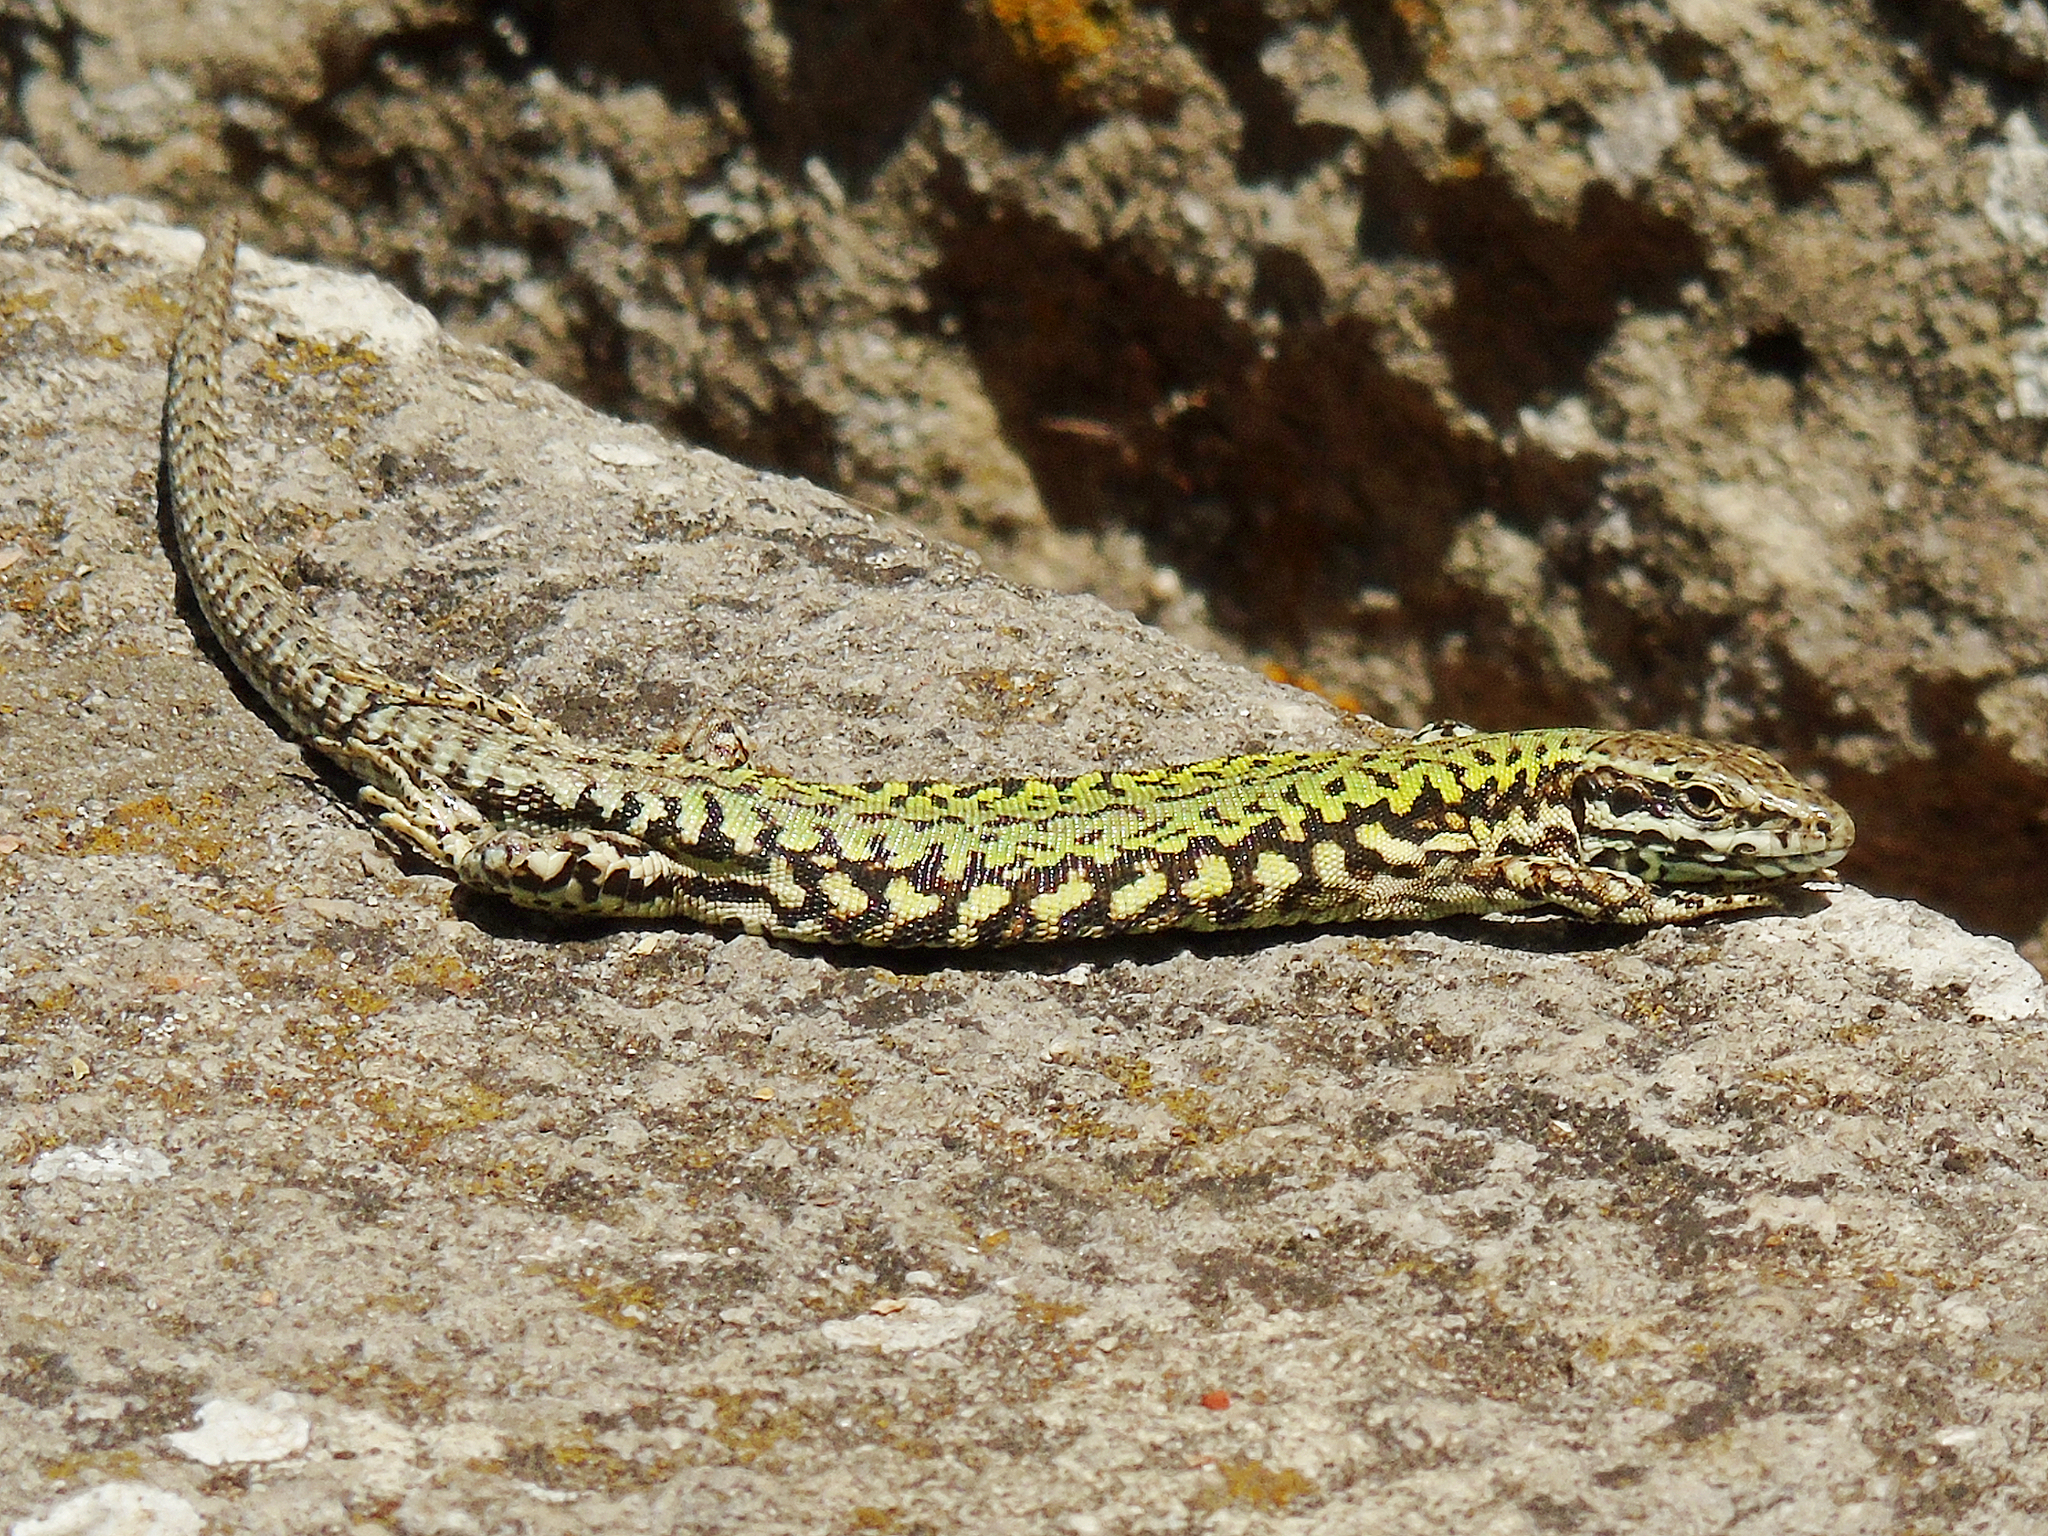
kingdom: Animalia
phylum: Chordata
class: Squamata
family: Lacertidae
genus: Podarcis
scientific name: Podarcis muralis
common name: Common wall lizard
